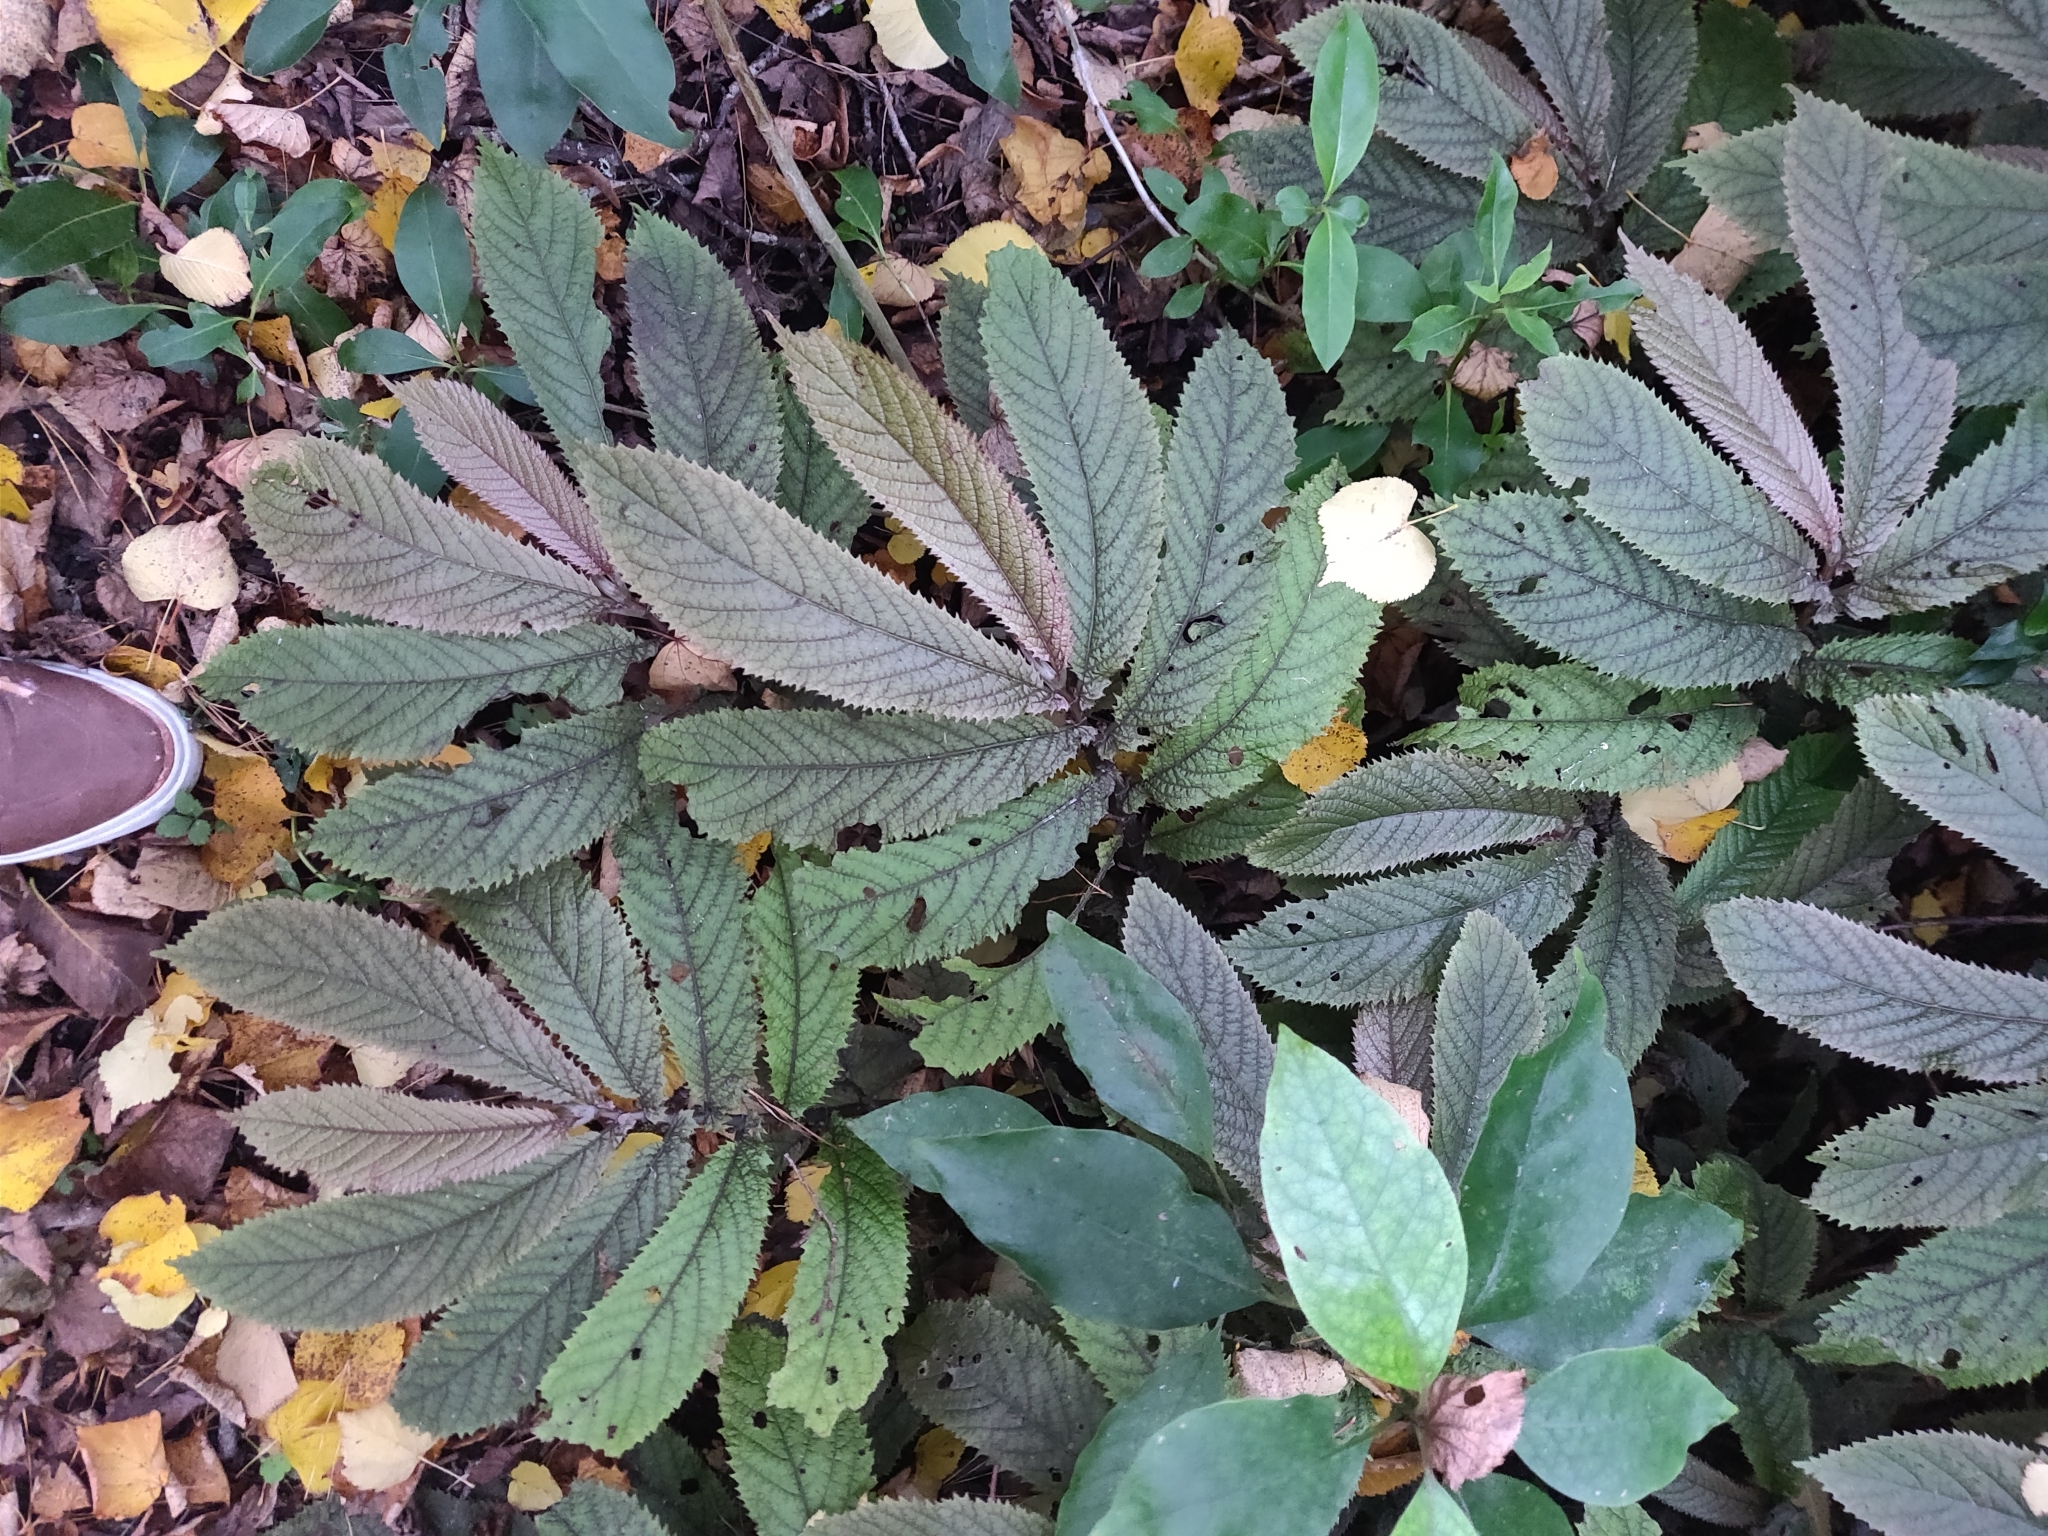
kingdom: Plantae
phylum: Tracheophyta
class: Magnoliopsida
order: Rosales
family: Urticaceae
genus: Elatostema
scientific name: Elatostema rugosum
